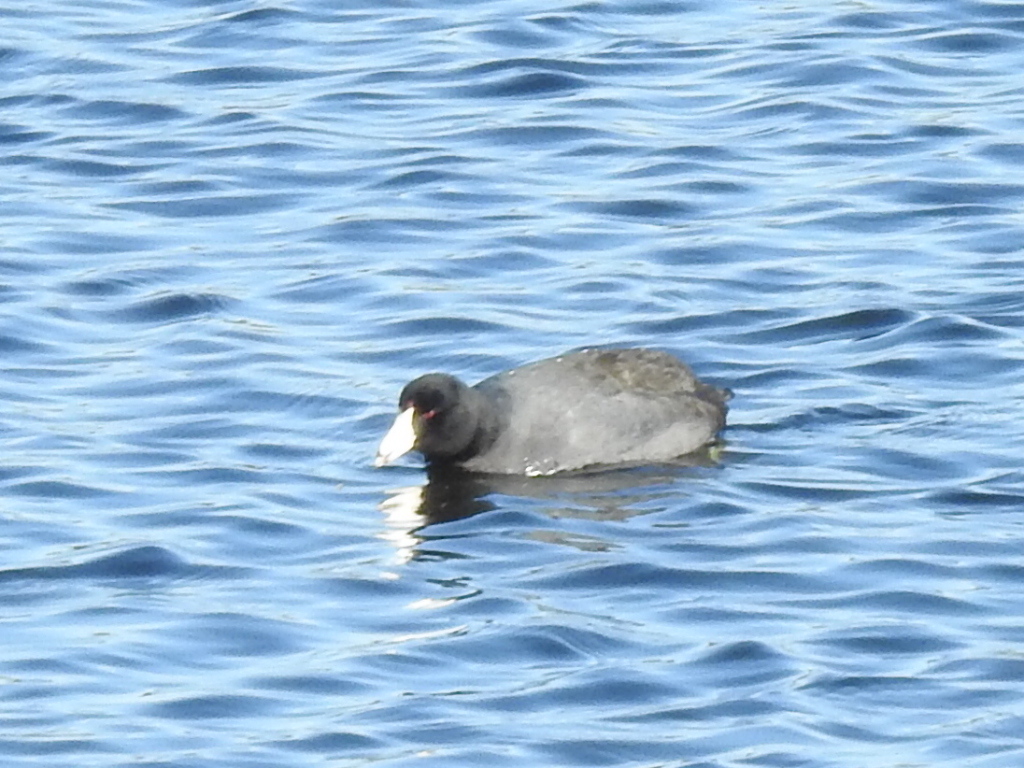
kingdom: Animalia
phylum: Chordata
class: Aves
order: Gruiformes
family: Rallidae
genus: Fulica
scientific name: Fulica americana
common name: American coot
